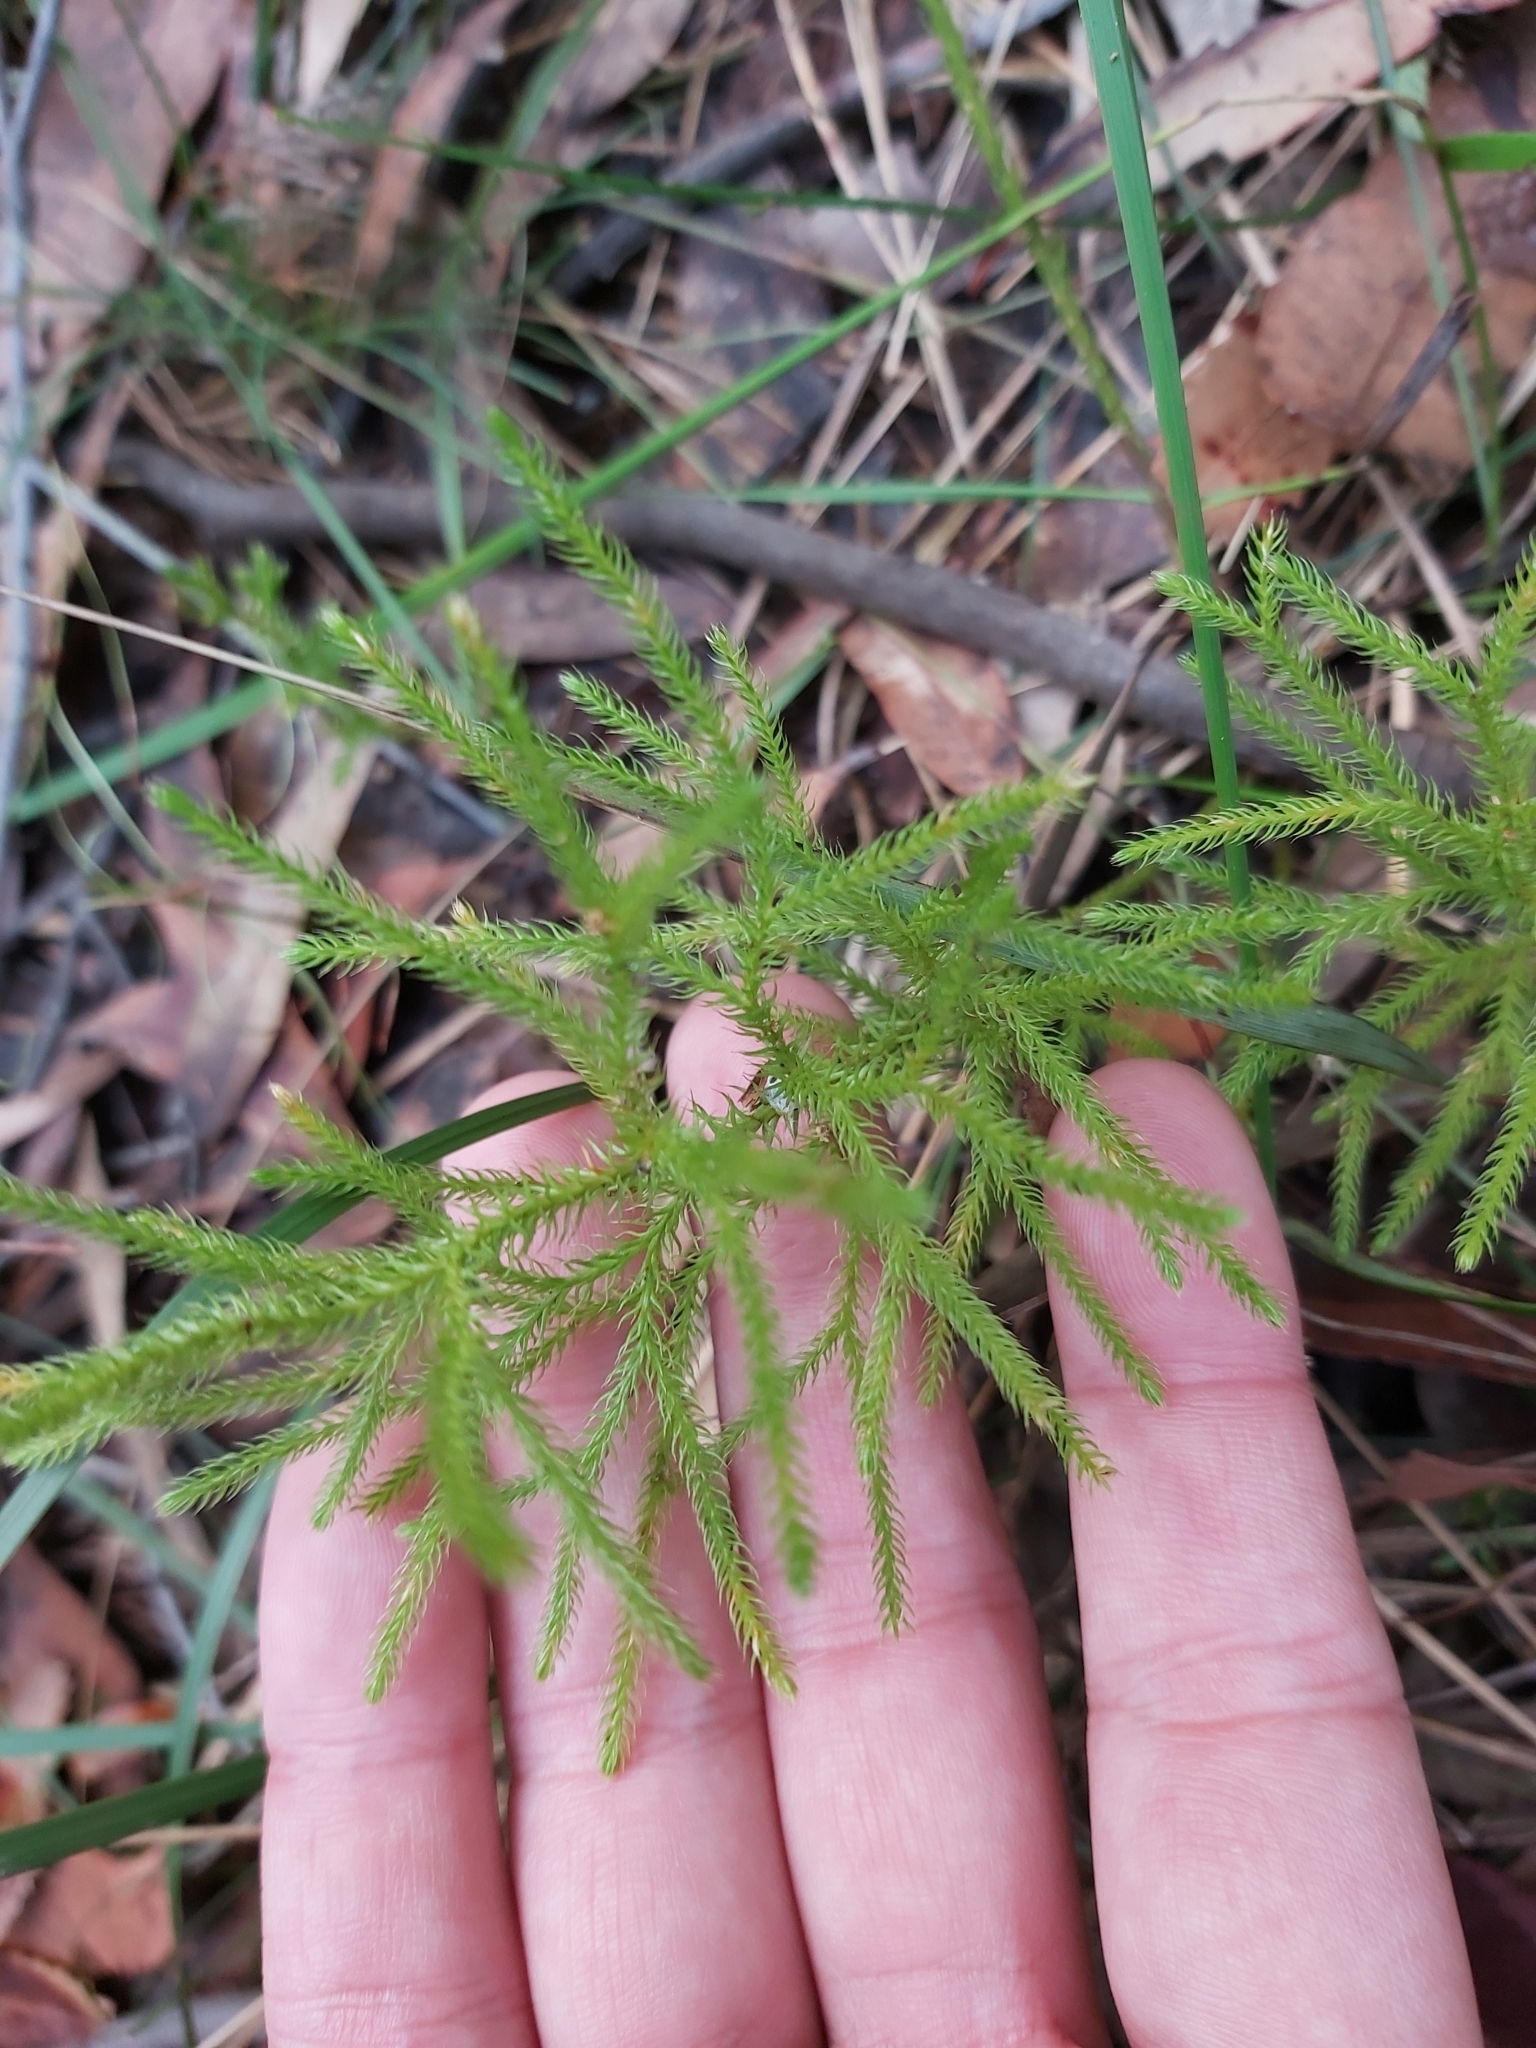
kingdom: Plantae
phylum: Tracheophyta
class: Lycopodiopsida
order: Lycopodiales
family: Lycopodiaceae
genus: Pseudolycopodium
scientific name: Pseudolycopodium densum
